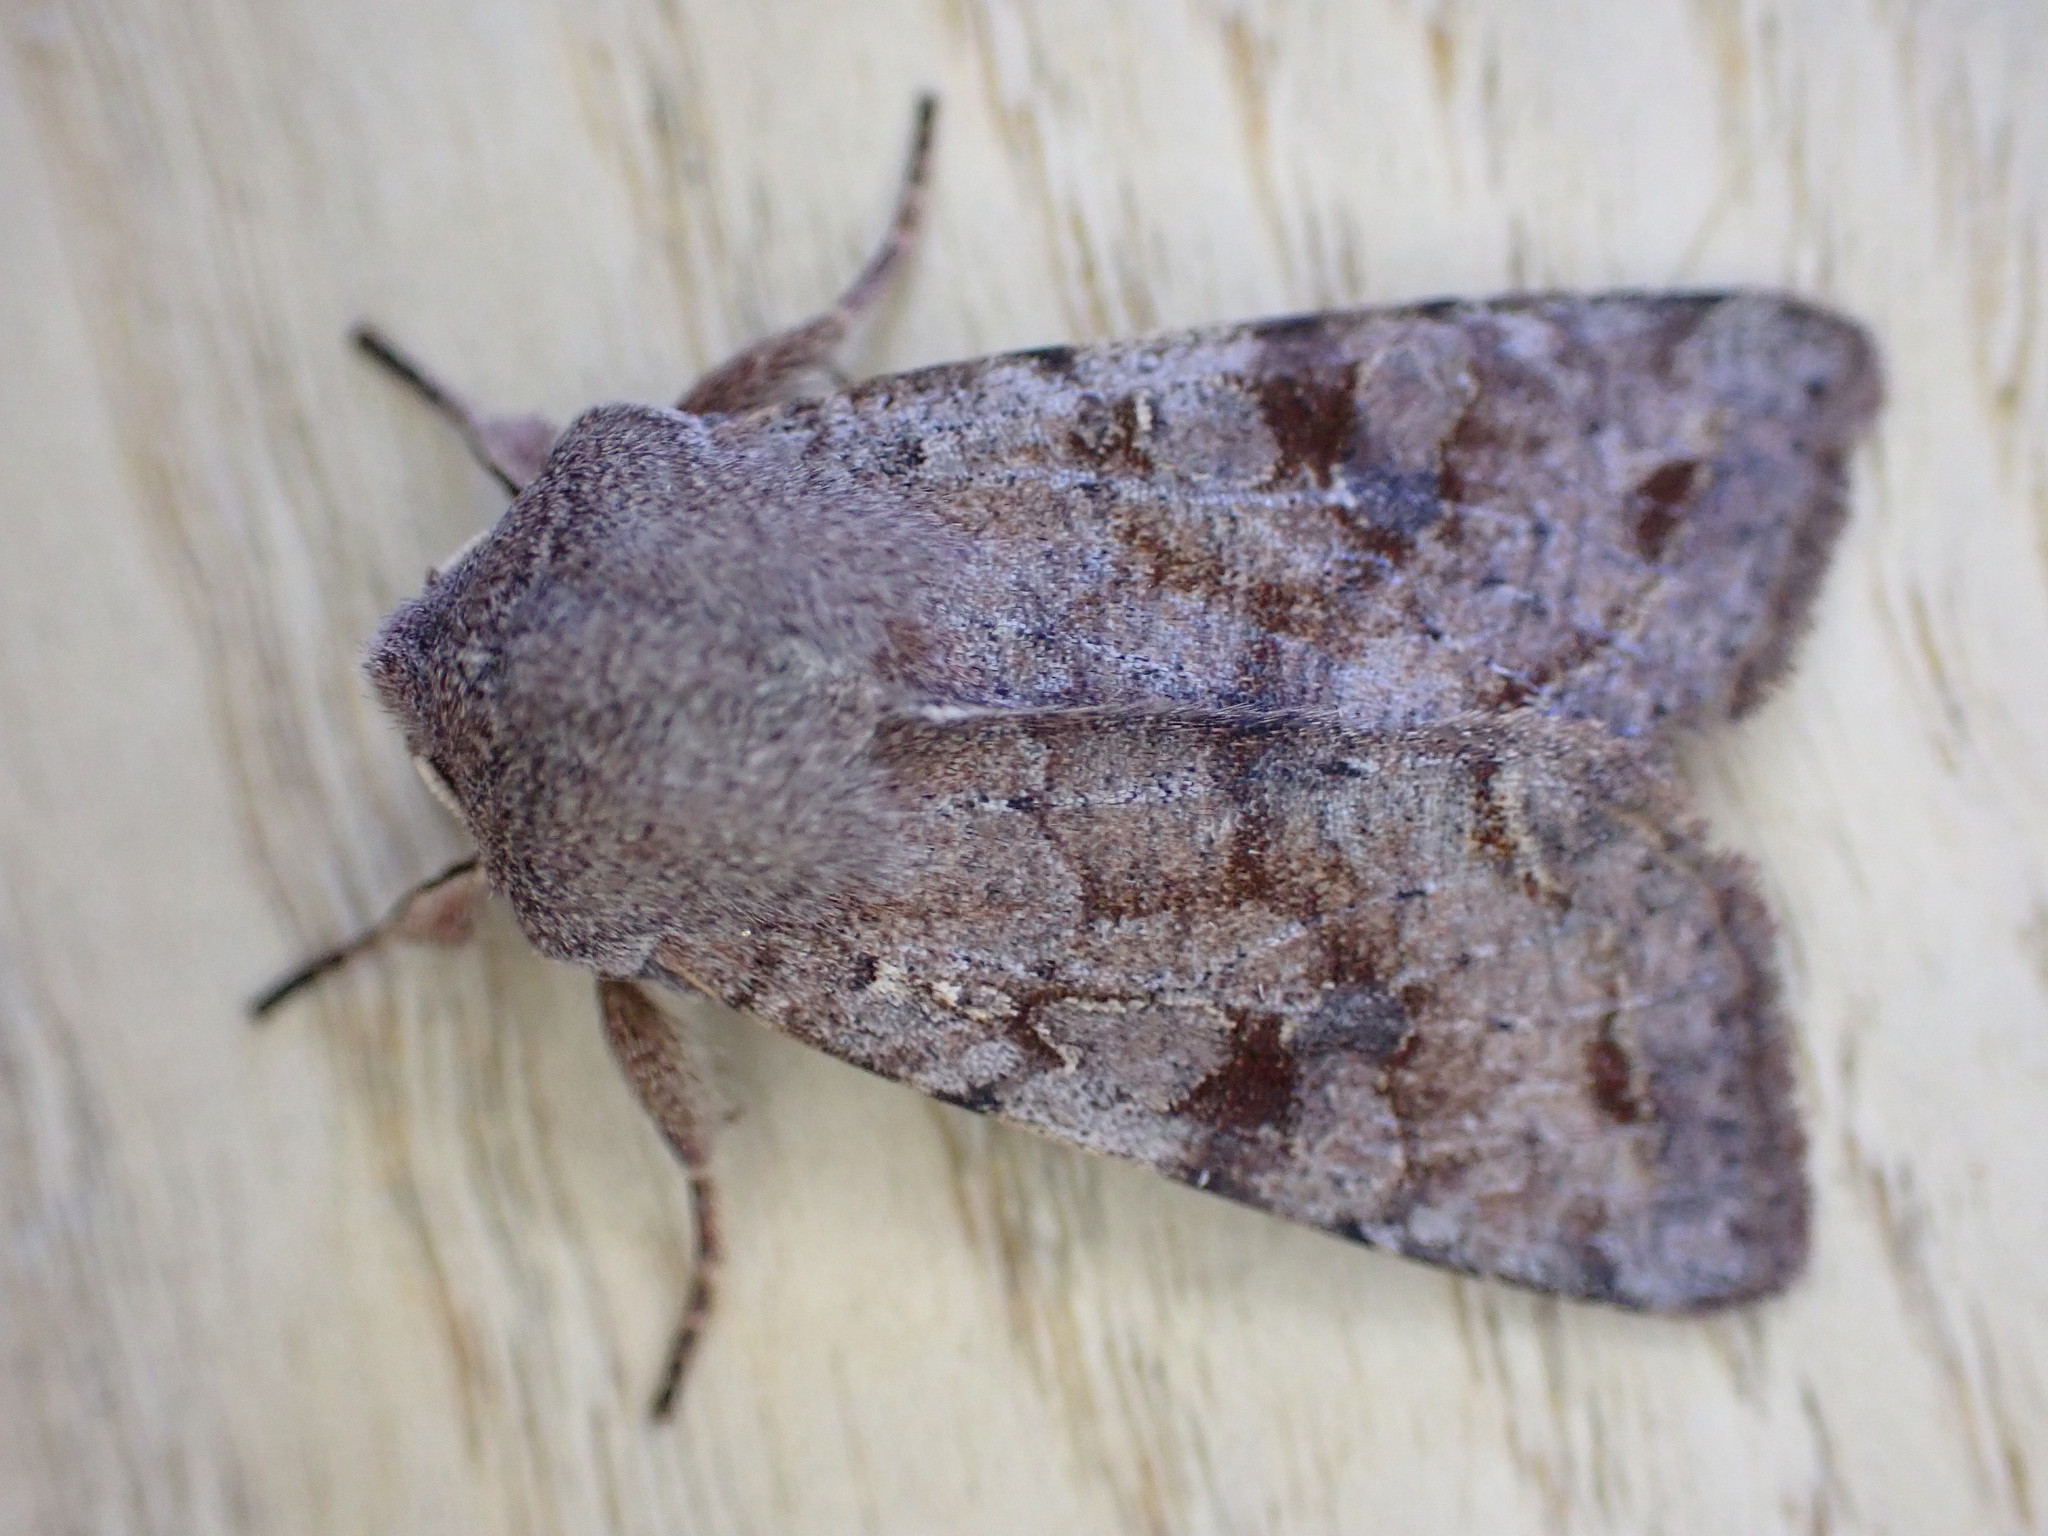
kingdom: Animalia
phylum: Arthropoda
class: Insecta
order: Lepidoptera
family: Noctuidae
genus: Orthosia
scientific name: Orthosia incerta
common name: Clouded drab
